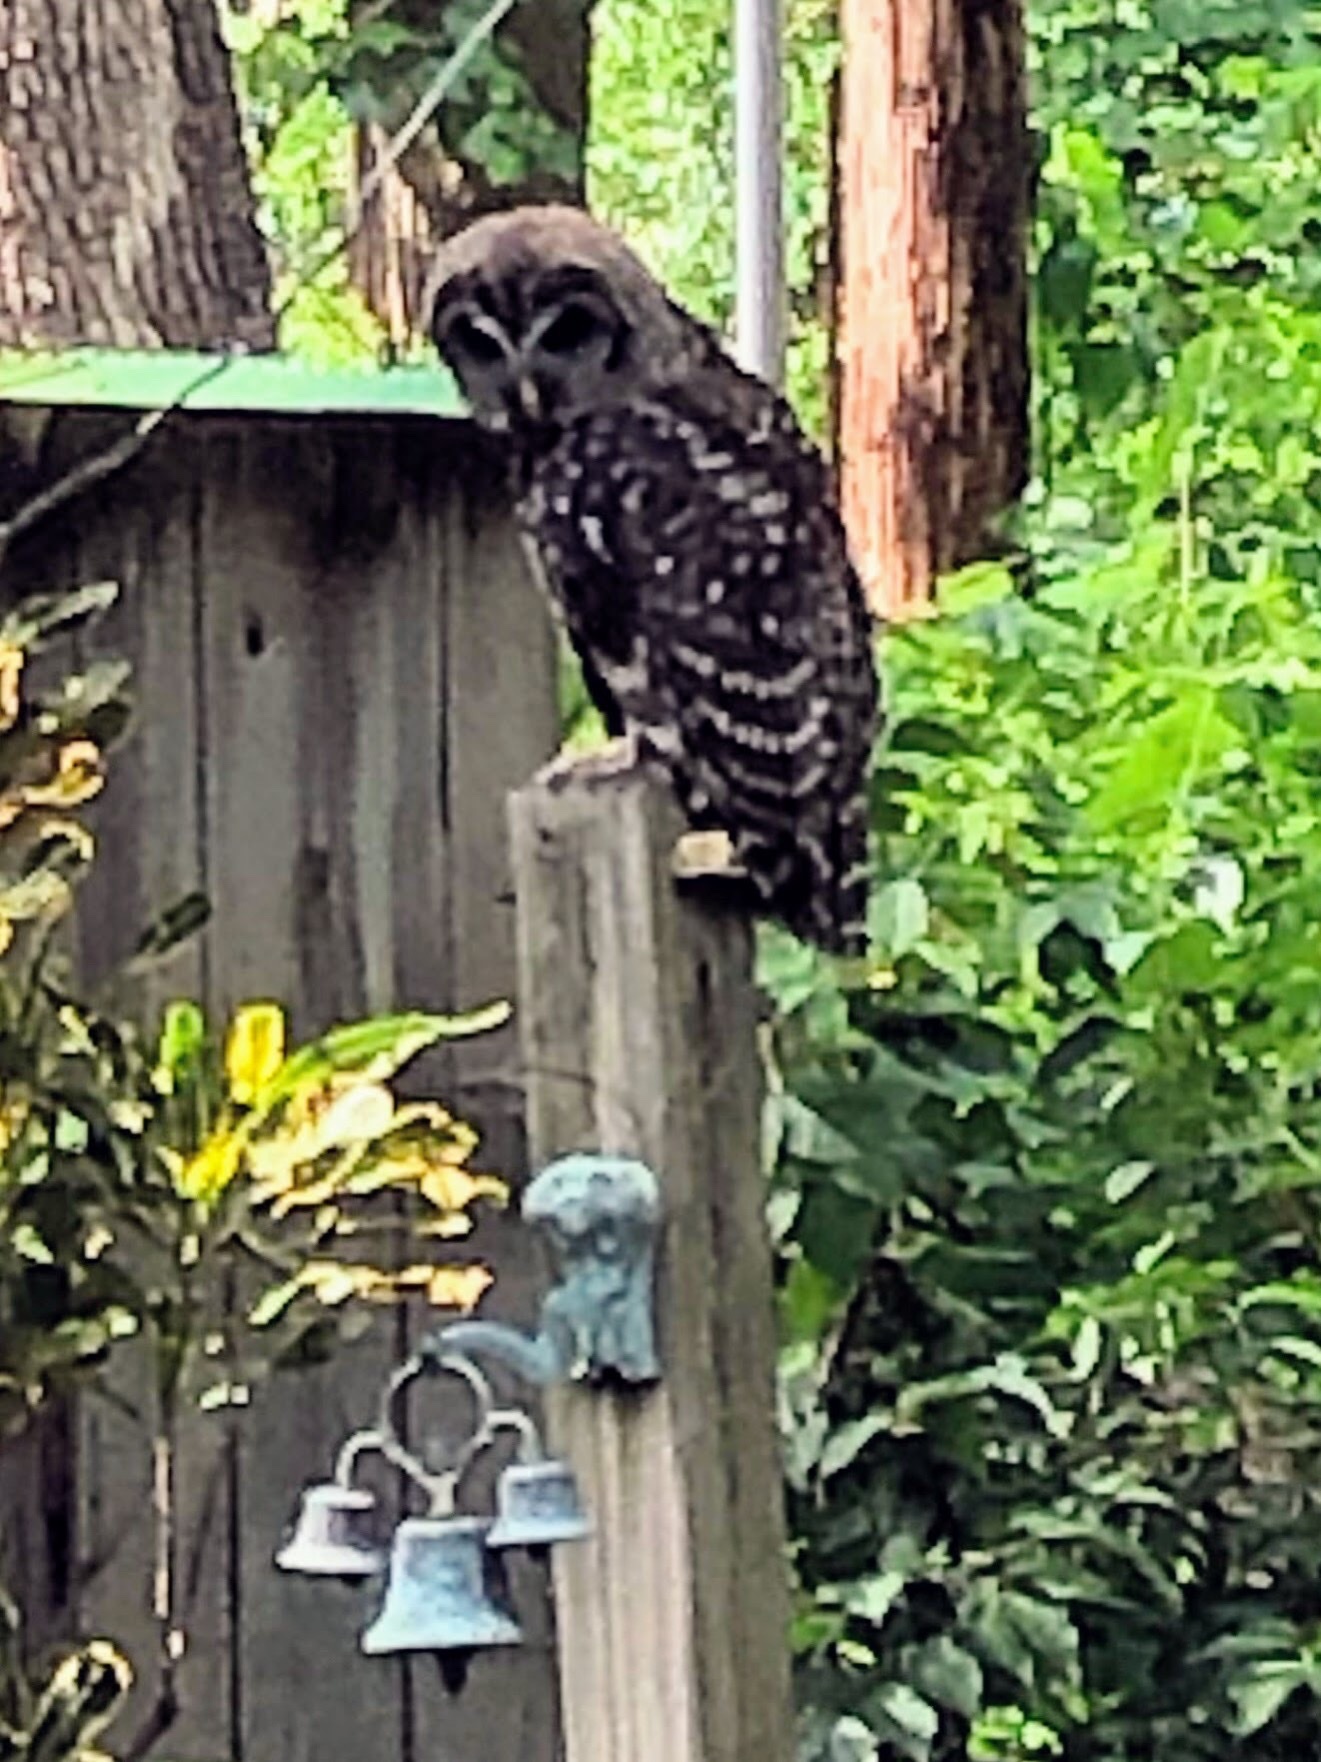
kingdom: Animalia
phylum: Chordata
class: Aves
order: Strigiformes
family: Strigidae
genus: Strix
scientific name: Strix varia
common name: Barred owl
